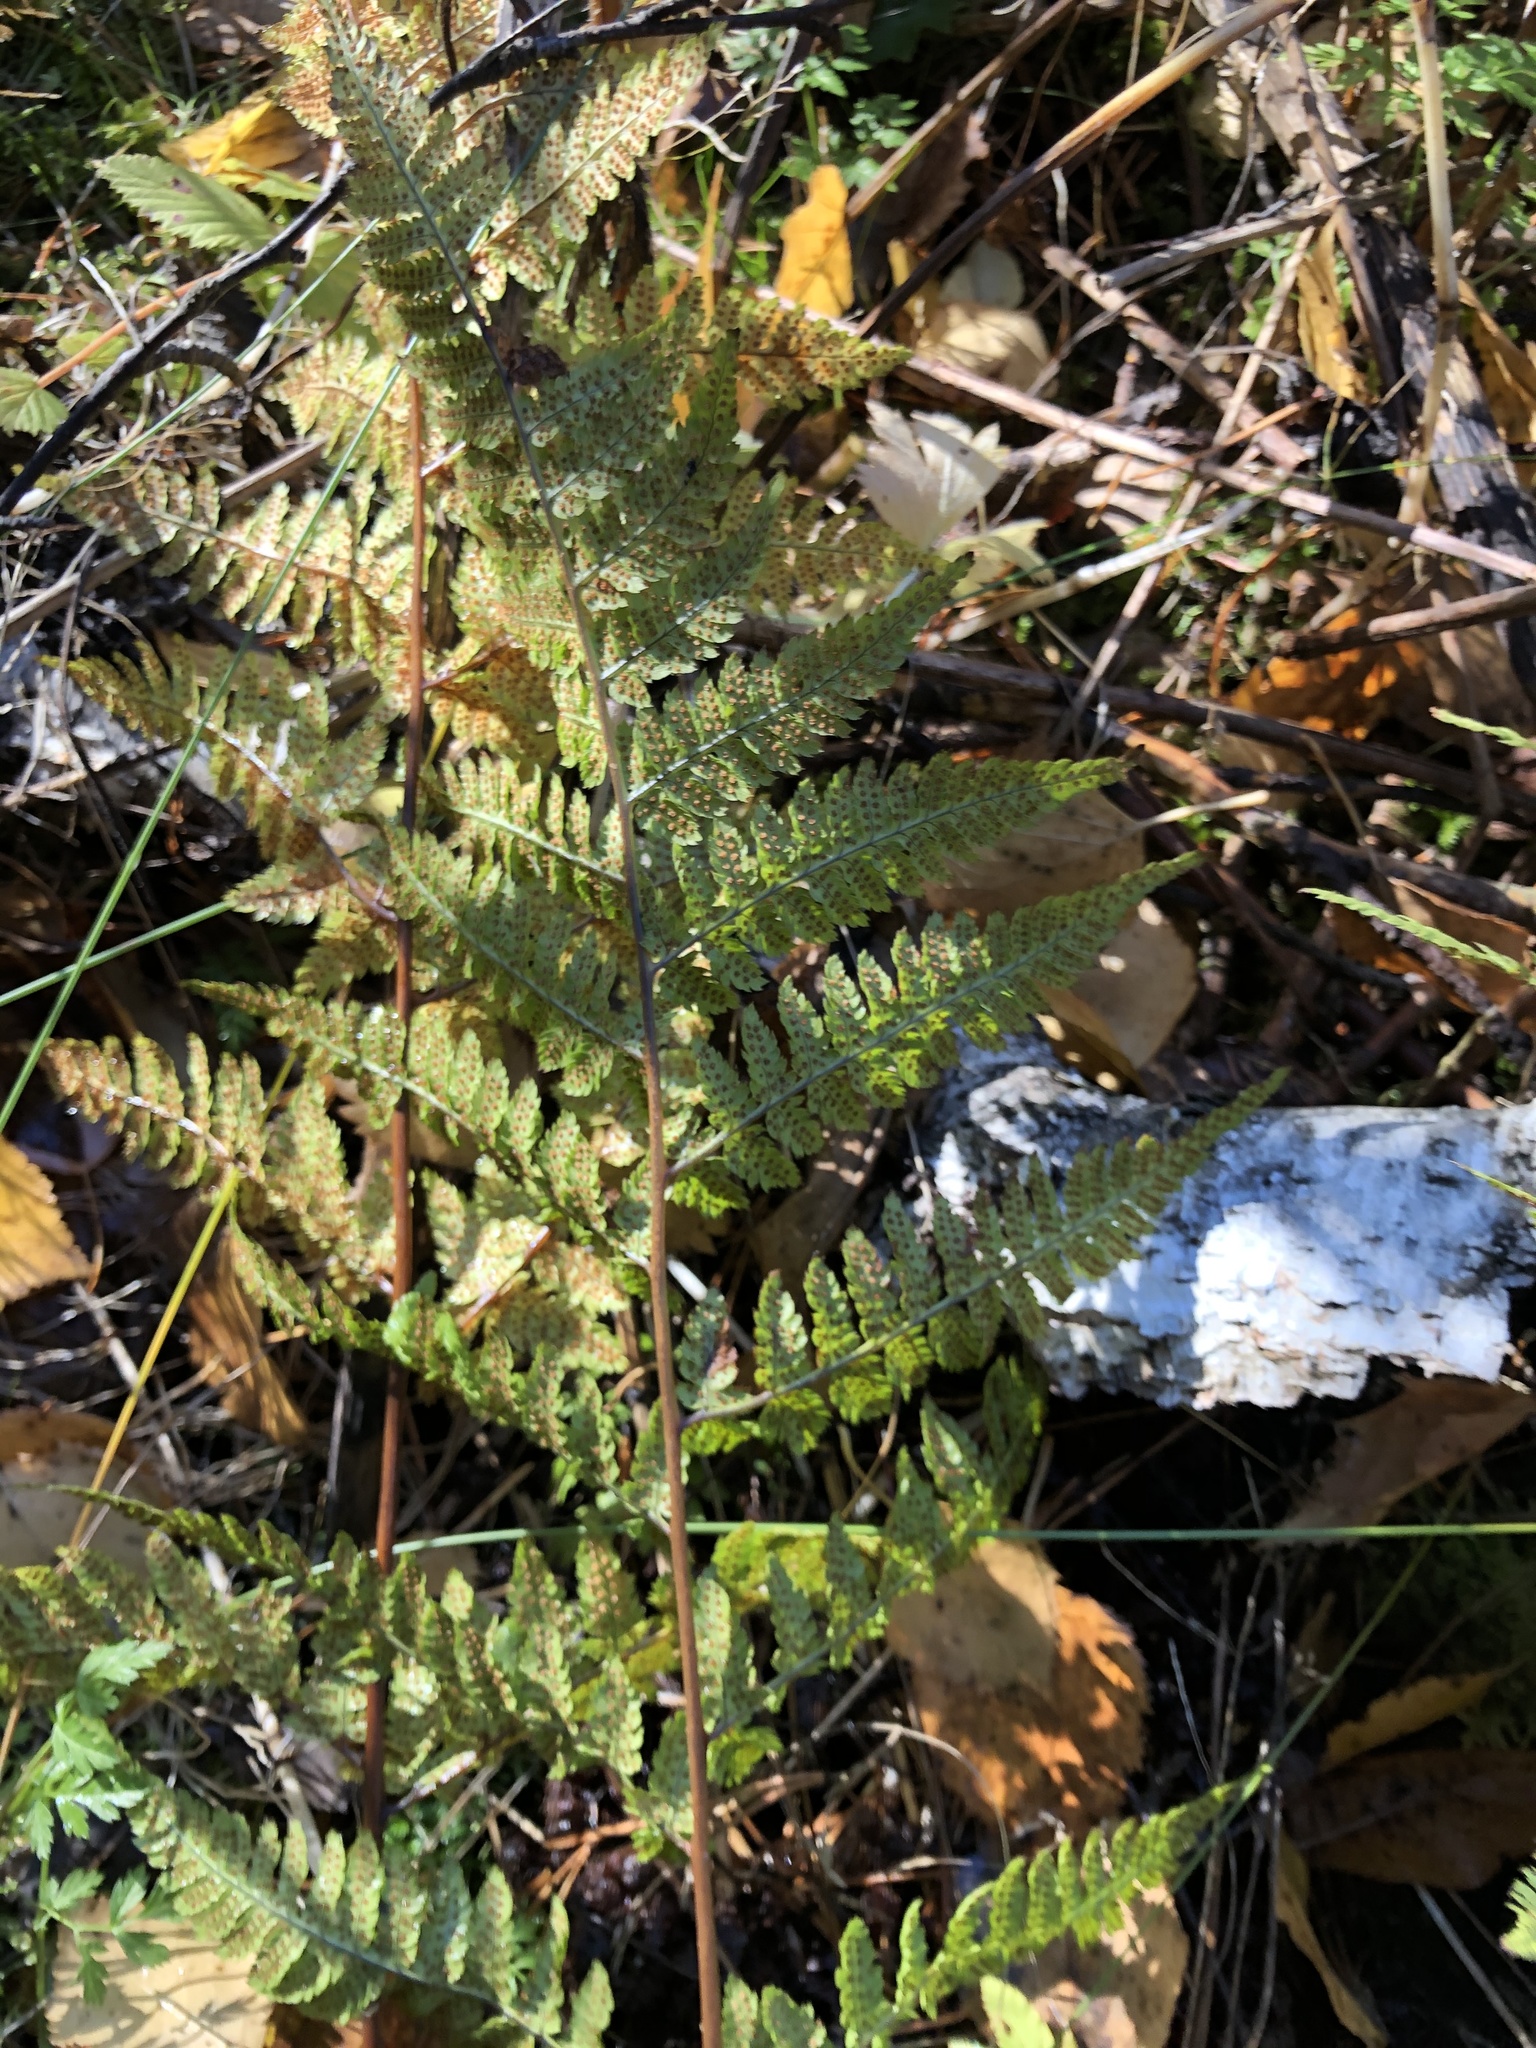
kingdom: Plantae
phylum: Tracheophyta
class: Polypodiopsida
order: Polypodiales
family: Dryopteridaceae
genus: Dryopteris
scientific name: Dryopteris carthusiana
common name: Narrow buckler-fern
